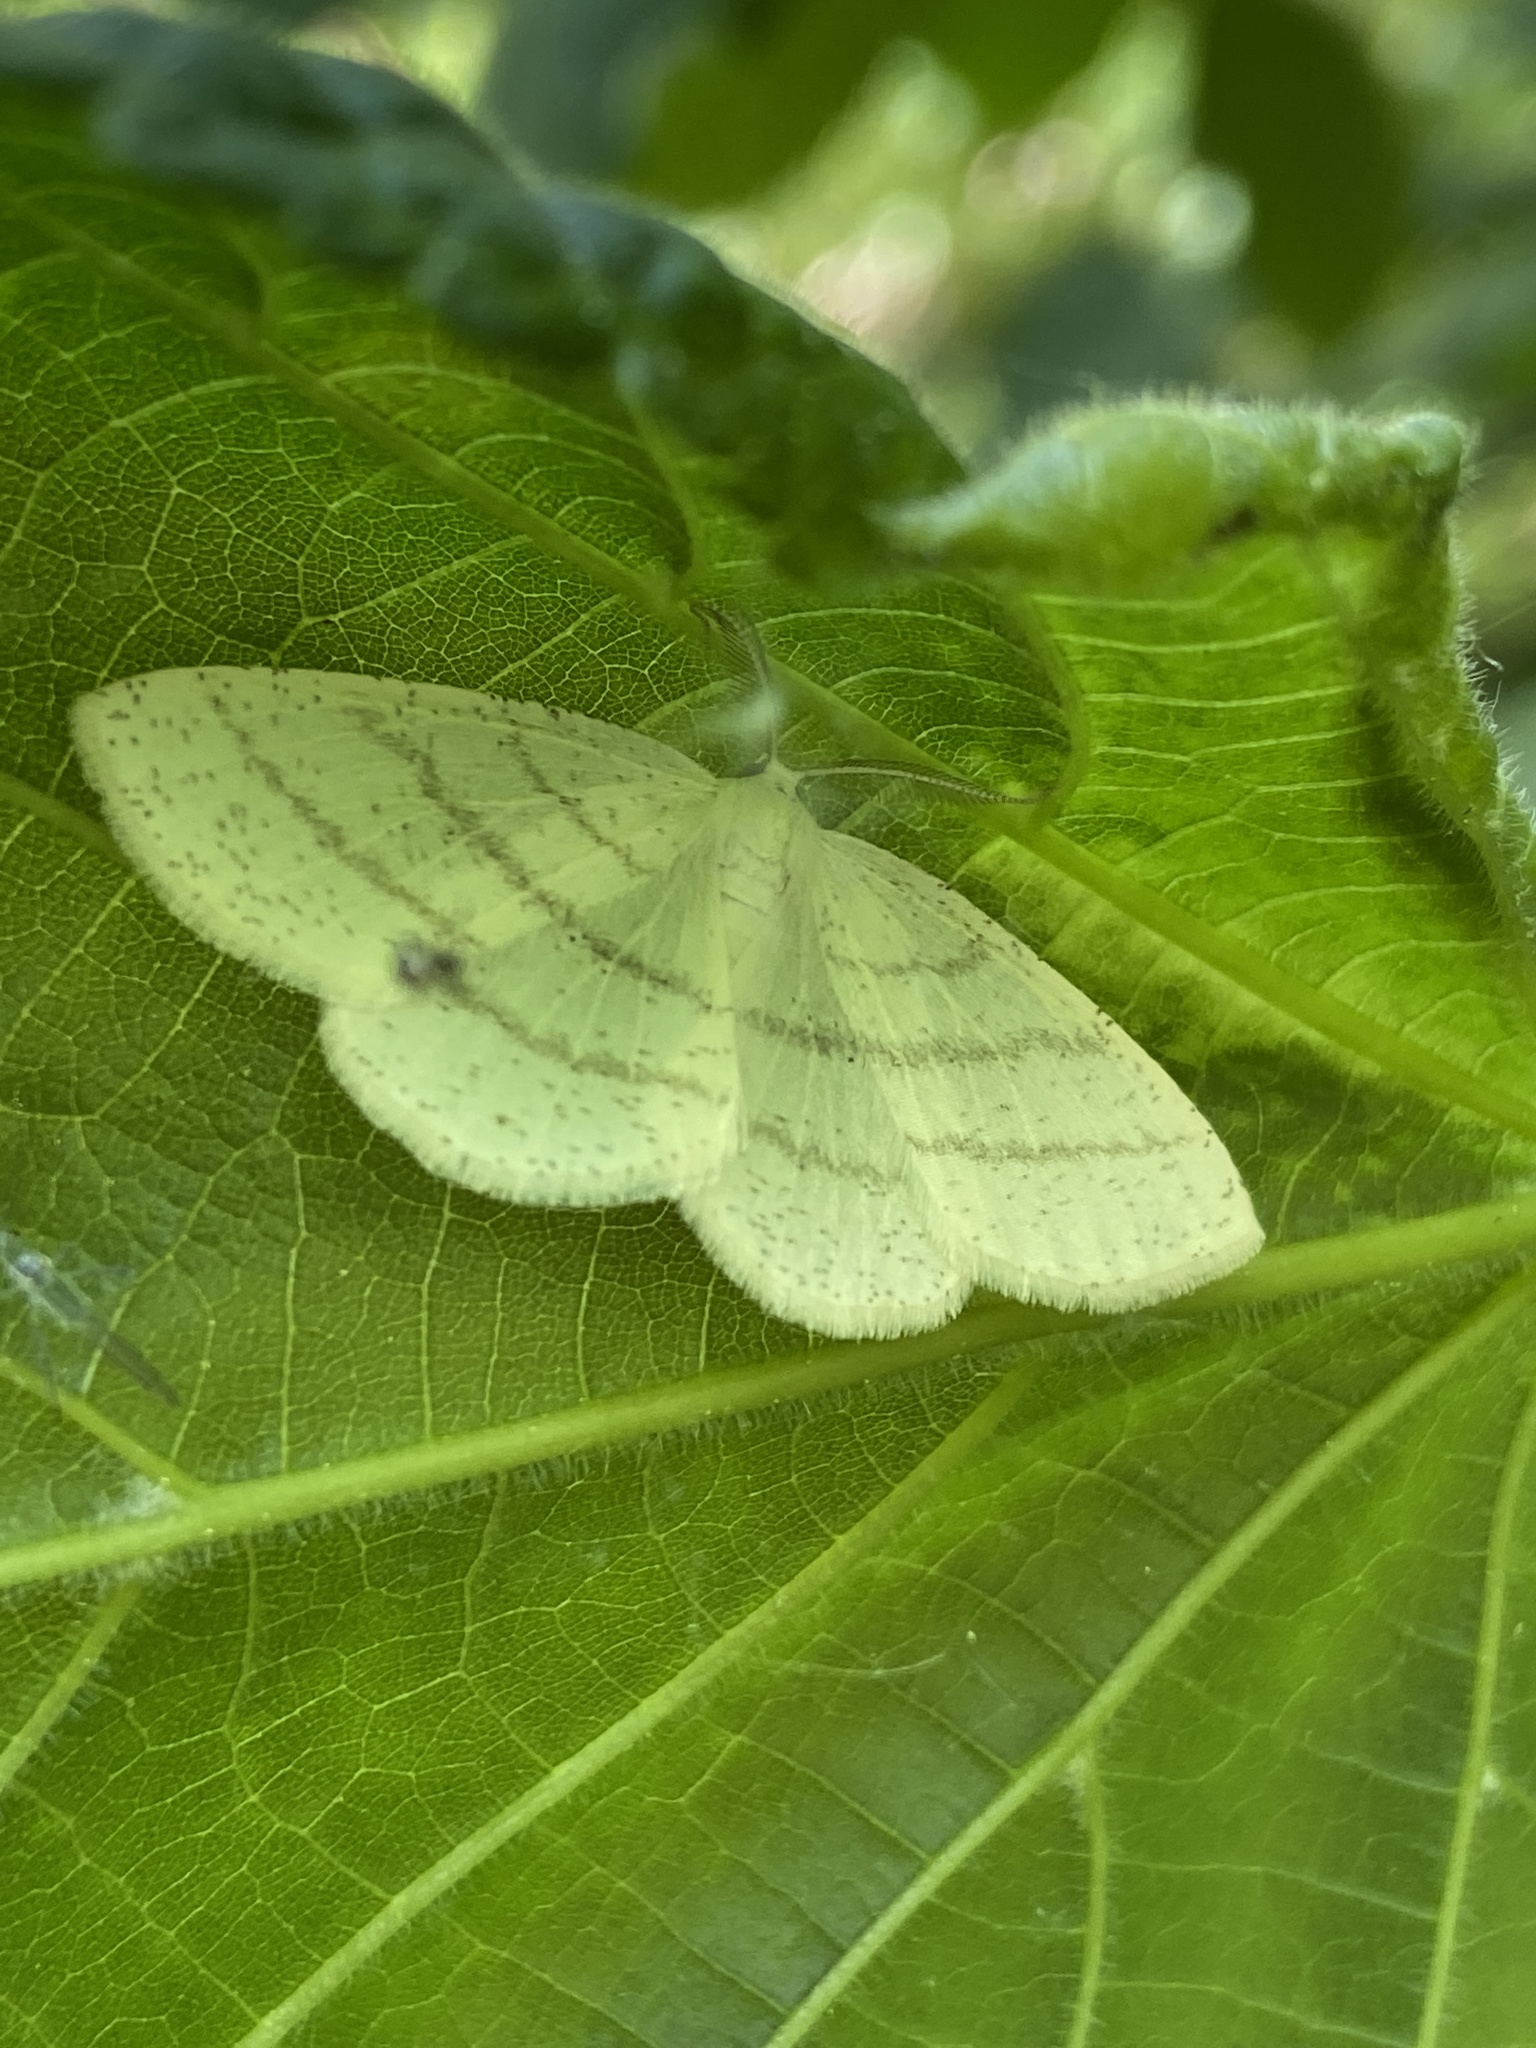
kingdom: Animalia
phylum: Arthropoda
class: Insecta
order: Lepidoptera
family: Geometridae
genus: Cabera
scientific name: Cabera pusaria
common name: Common white wave
